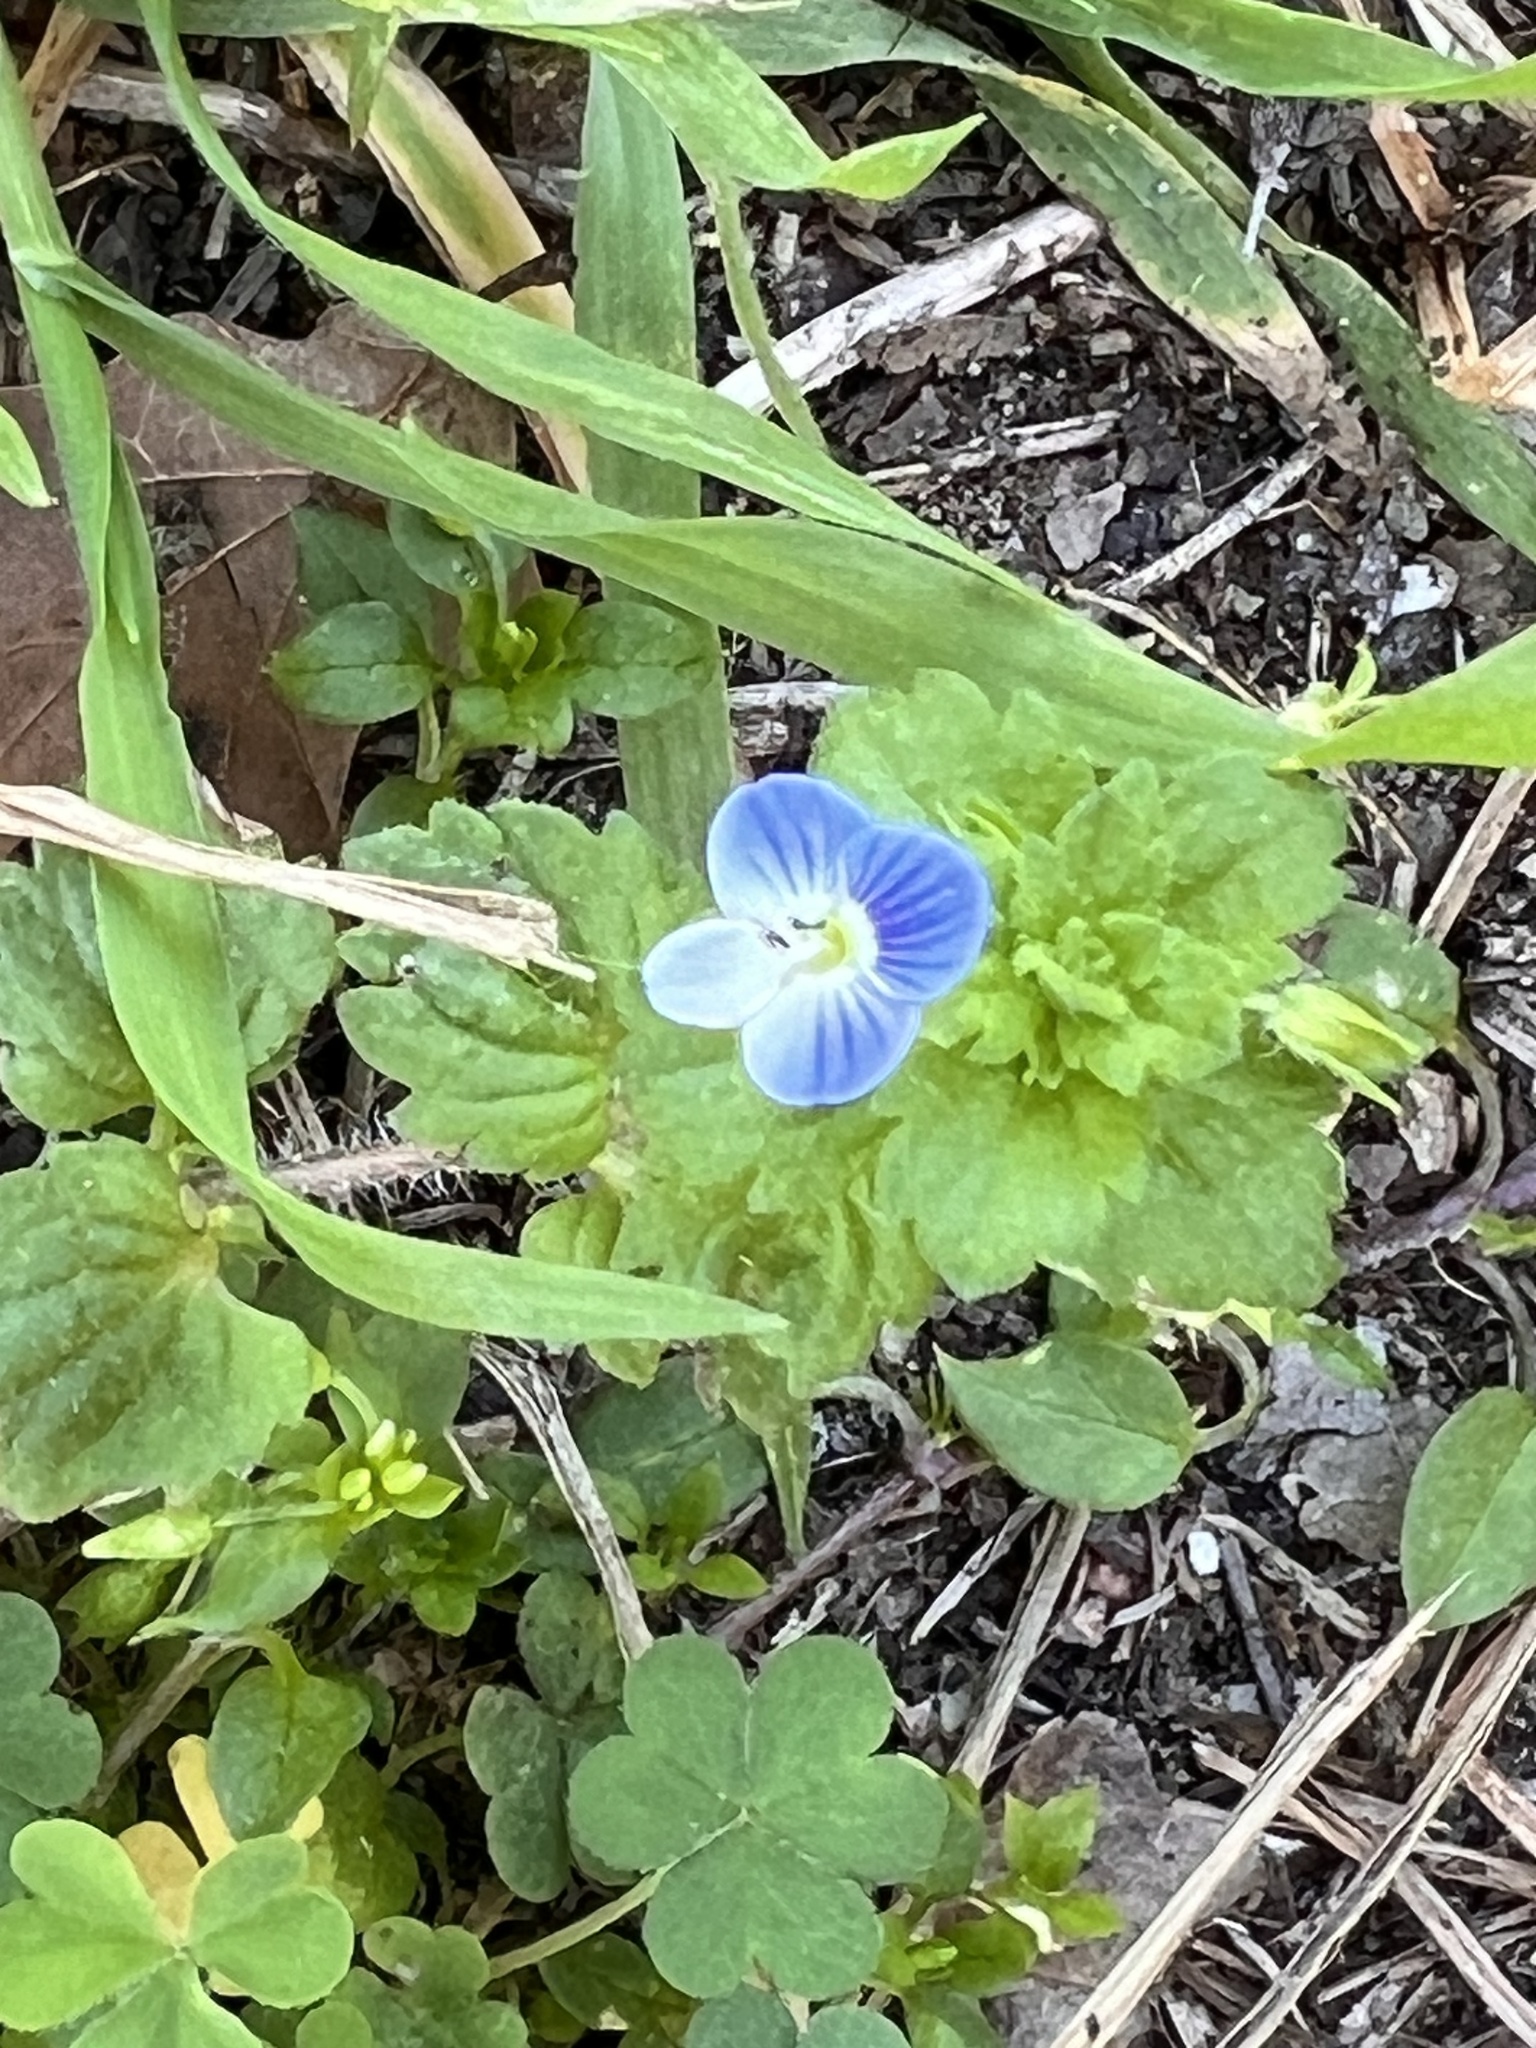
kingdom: Plantae
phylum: Tracheophyta
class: Magnoliopsida
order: Lamiales
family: Plantaginaceae
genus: Veronica
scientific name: Veronica persica
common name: Common field-speedwell
